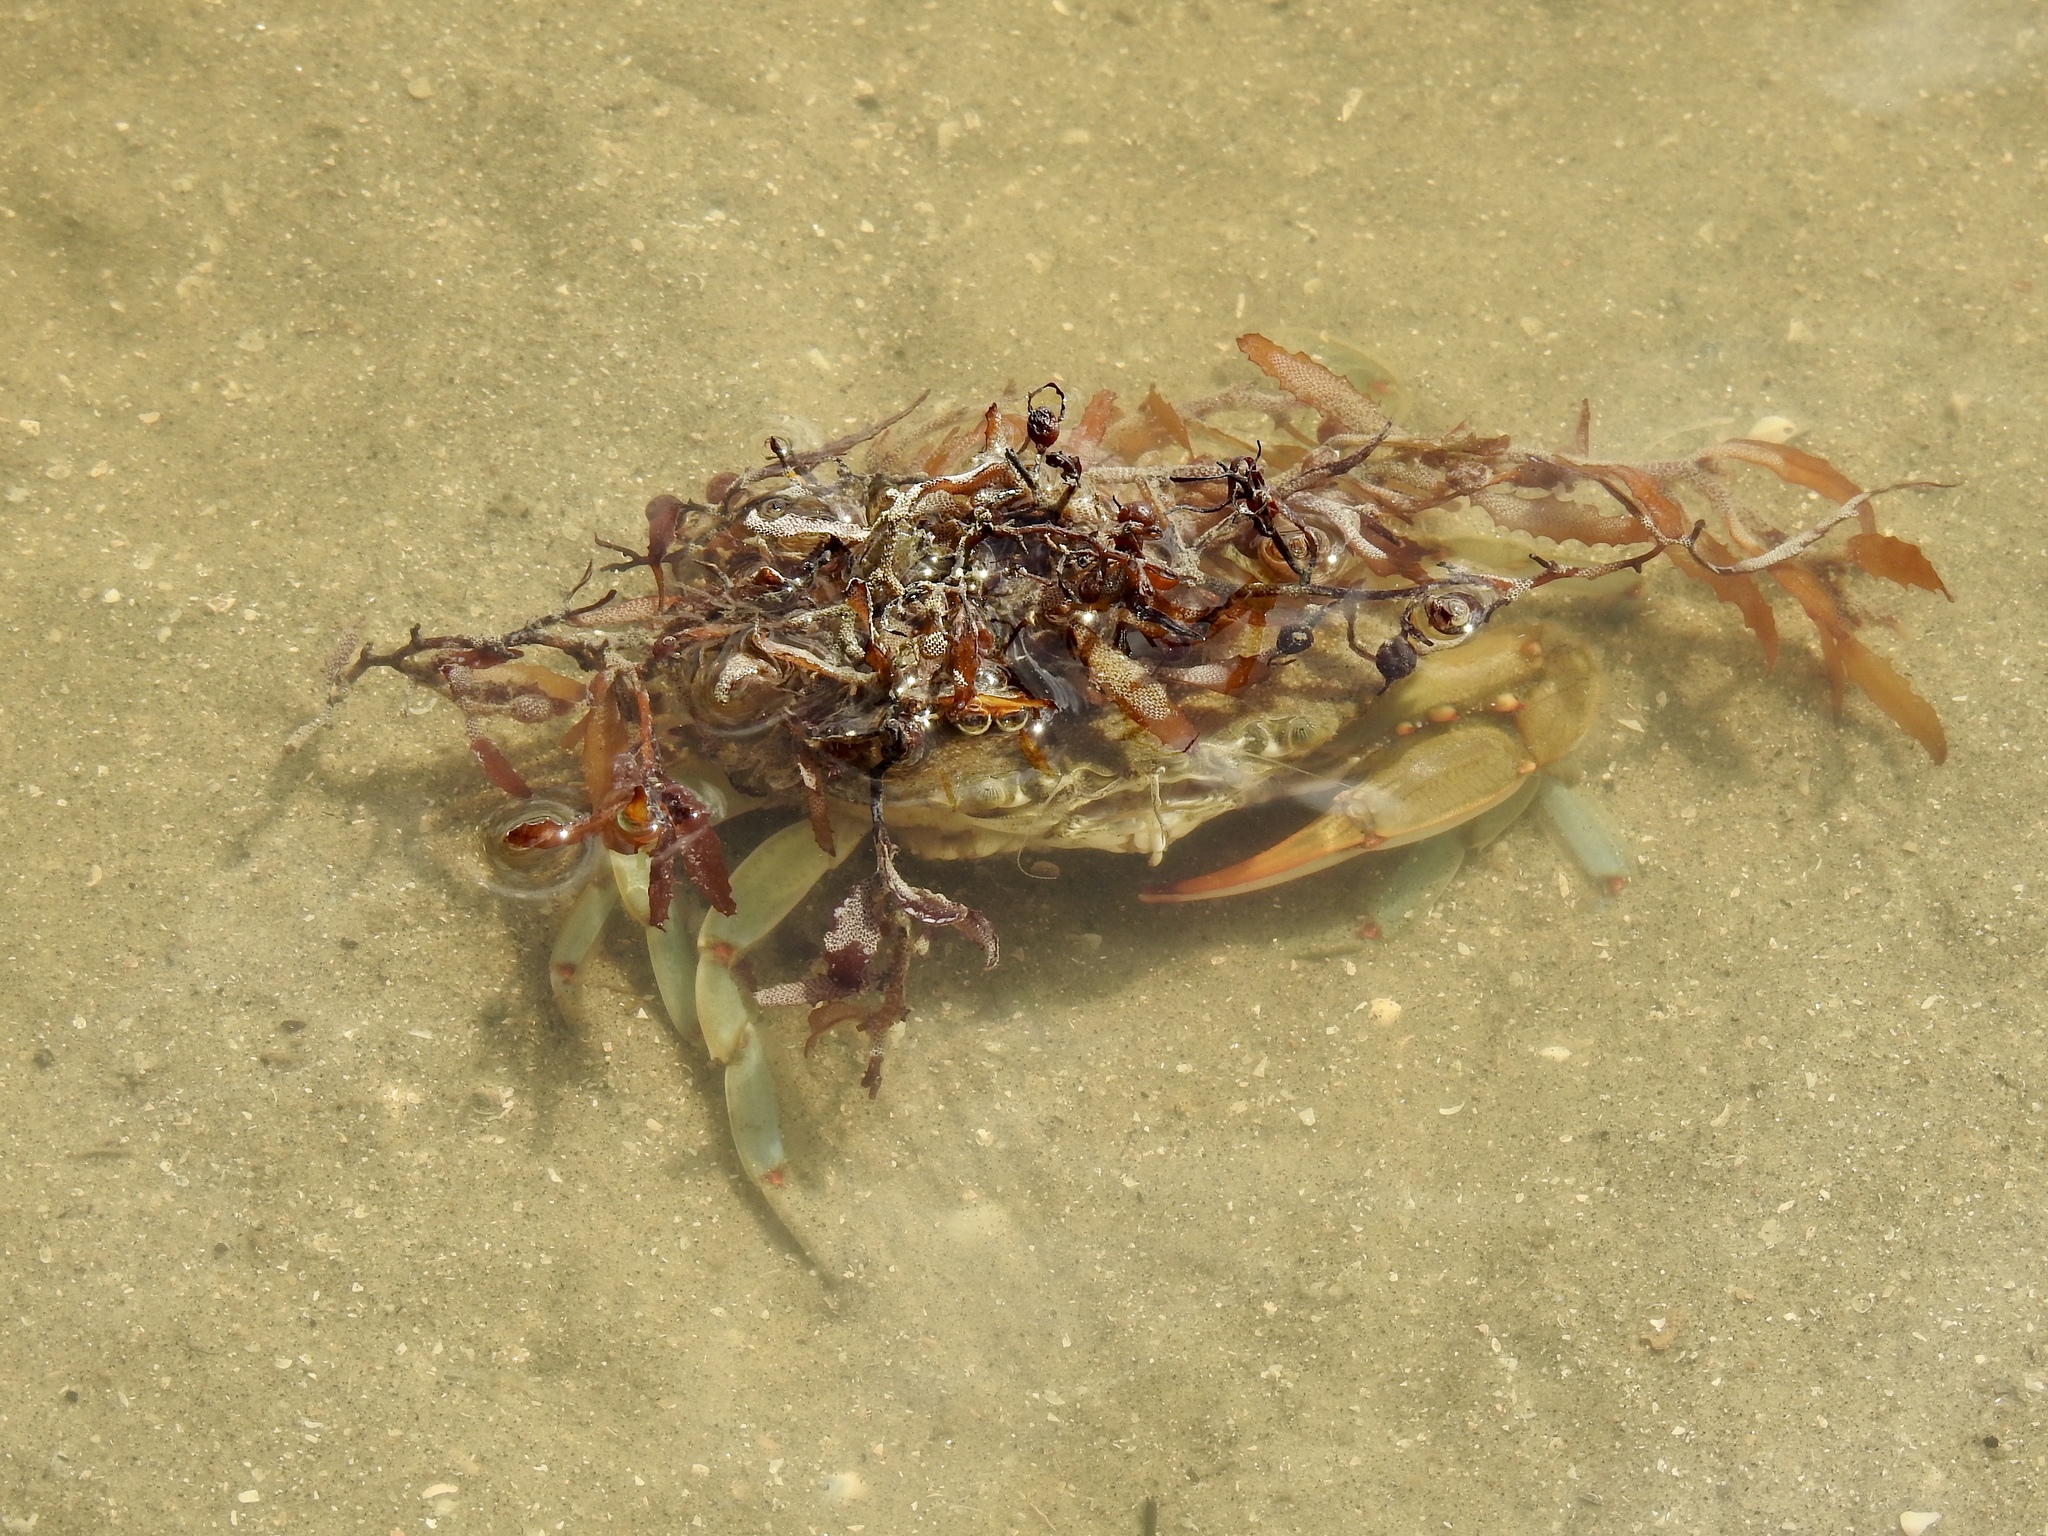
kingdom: Animalia
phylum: Arthropoda
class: Malacostraca
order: Decapoda
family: Portunidae
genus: Callinectes
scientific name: Callinectes sapidus
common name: Blue crab
